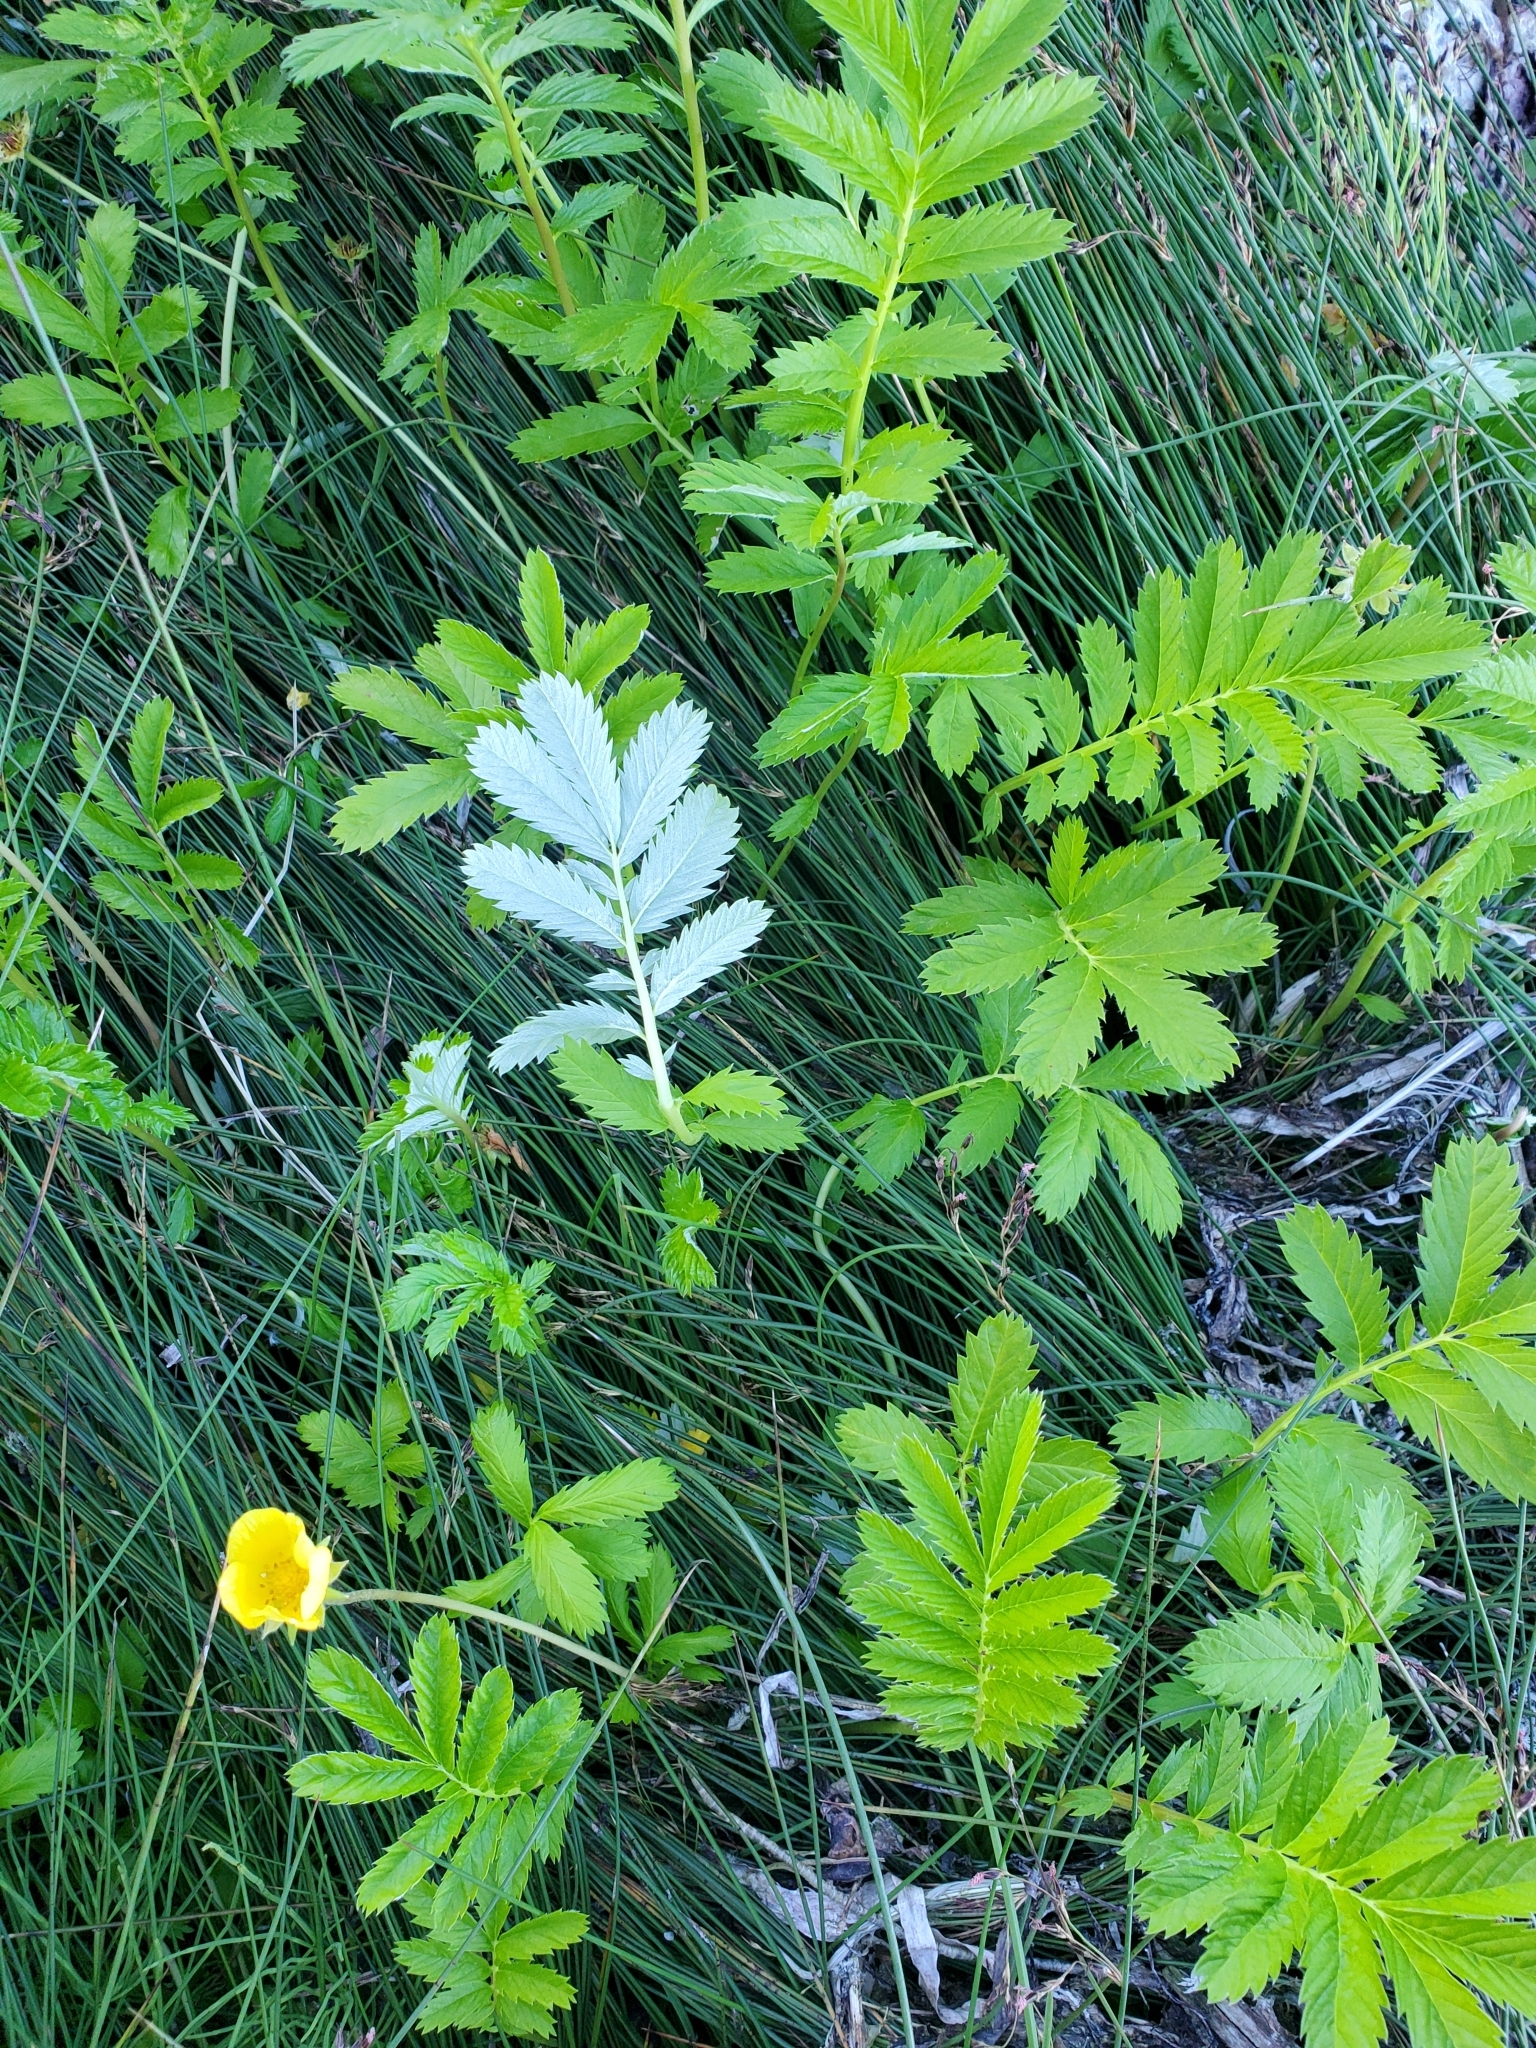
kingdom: Plantae
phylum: Tracheophyta
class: Magnoliopsida
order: Rosales
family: Rosaceae
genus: Argentina
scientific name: Argentina anserina
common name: Common silverweed
